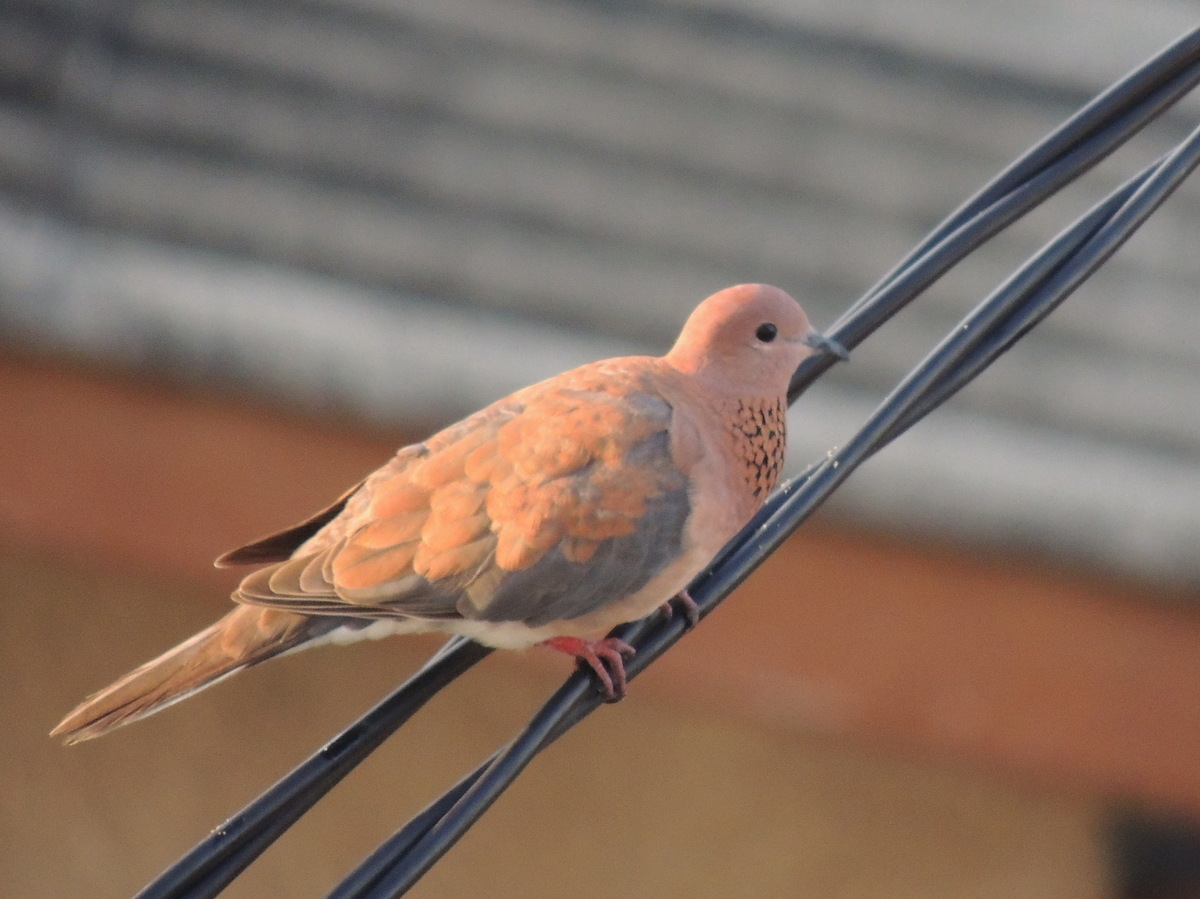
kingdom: Animalia
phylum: Chordata
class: Aves
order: Columbiformes
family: Columbidae
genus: Spilopelia
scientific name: Spilopelia senegalensis
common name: Laughing dove
